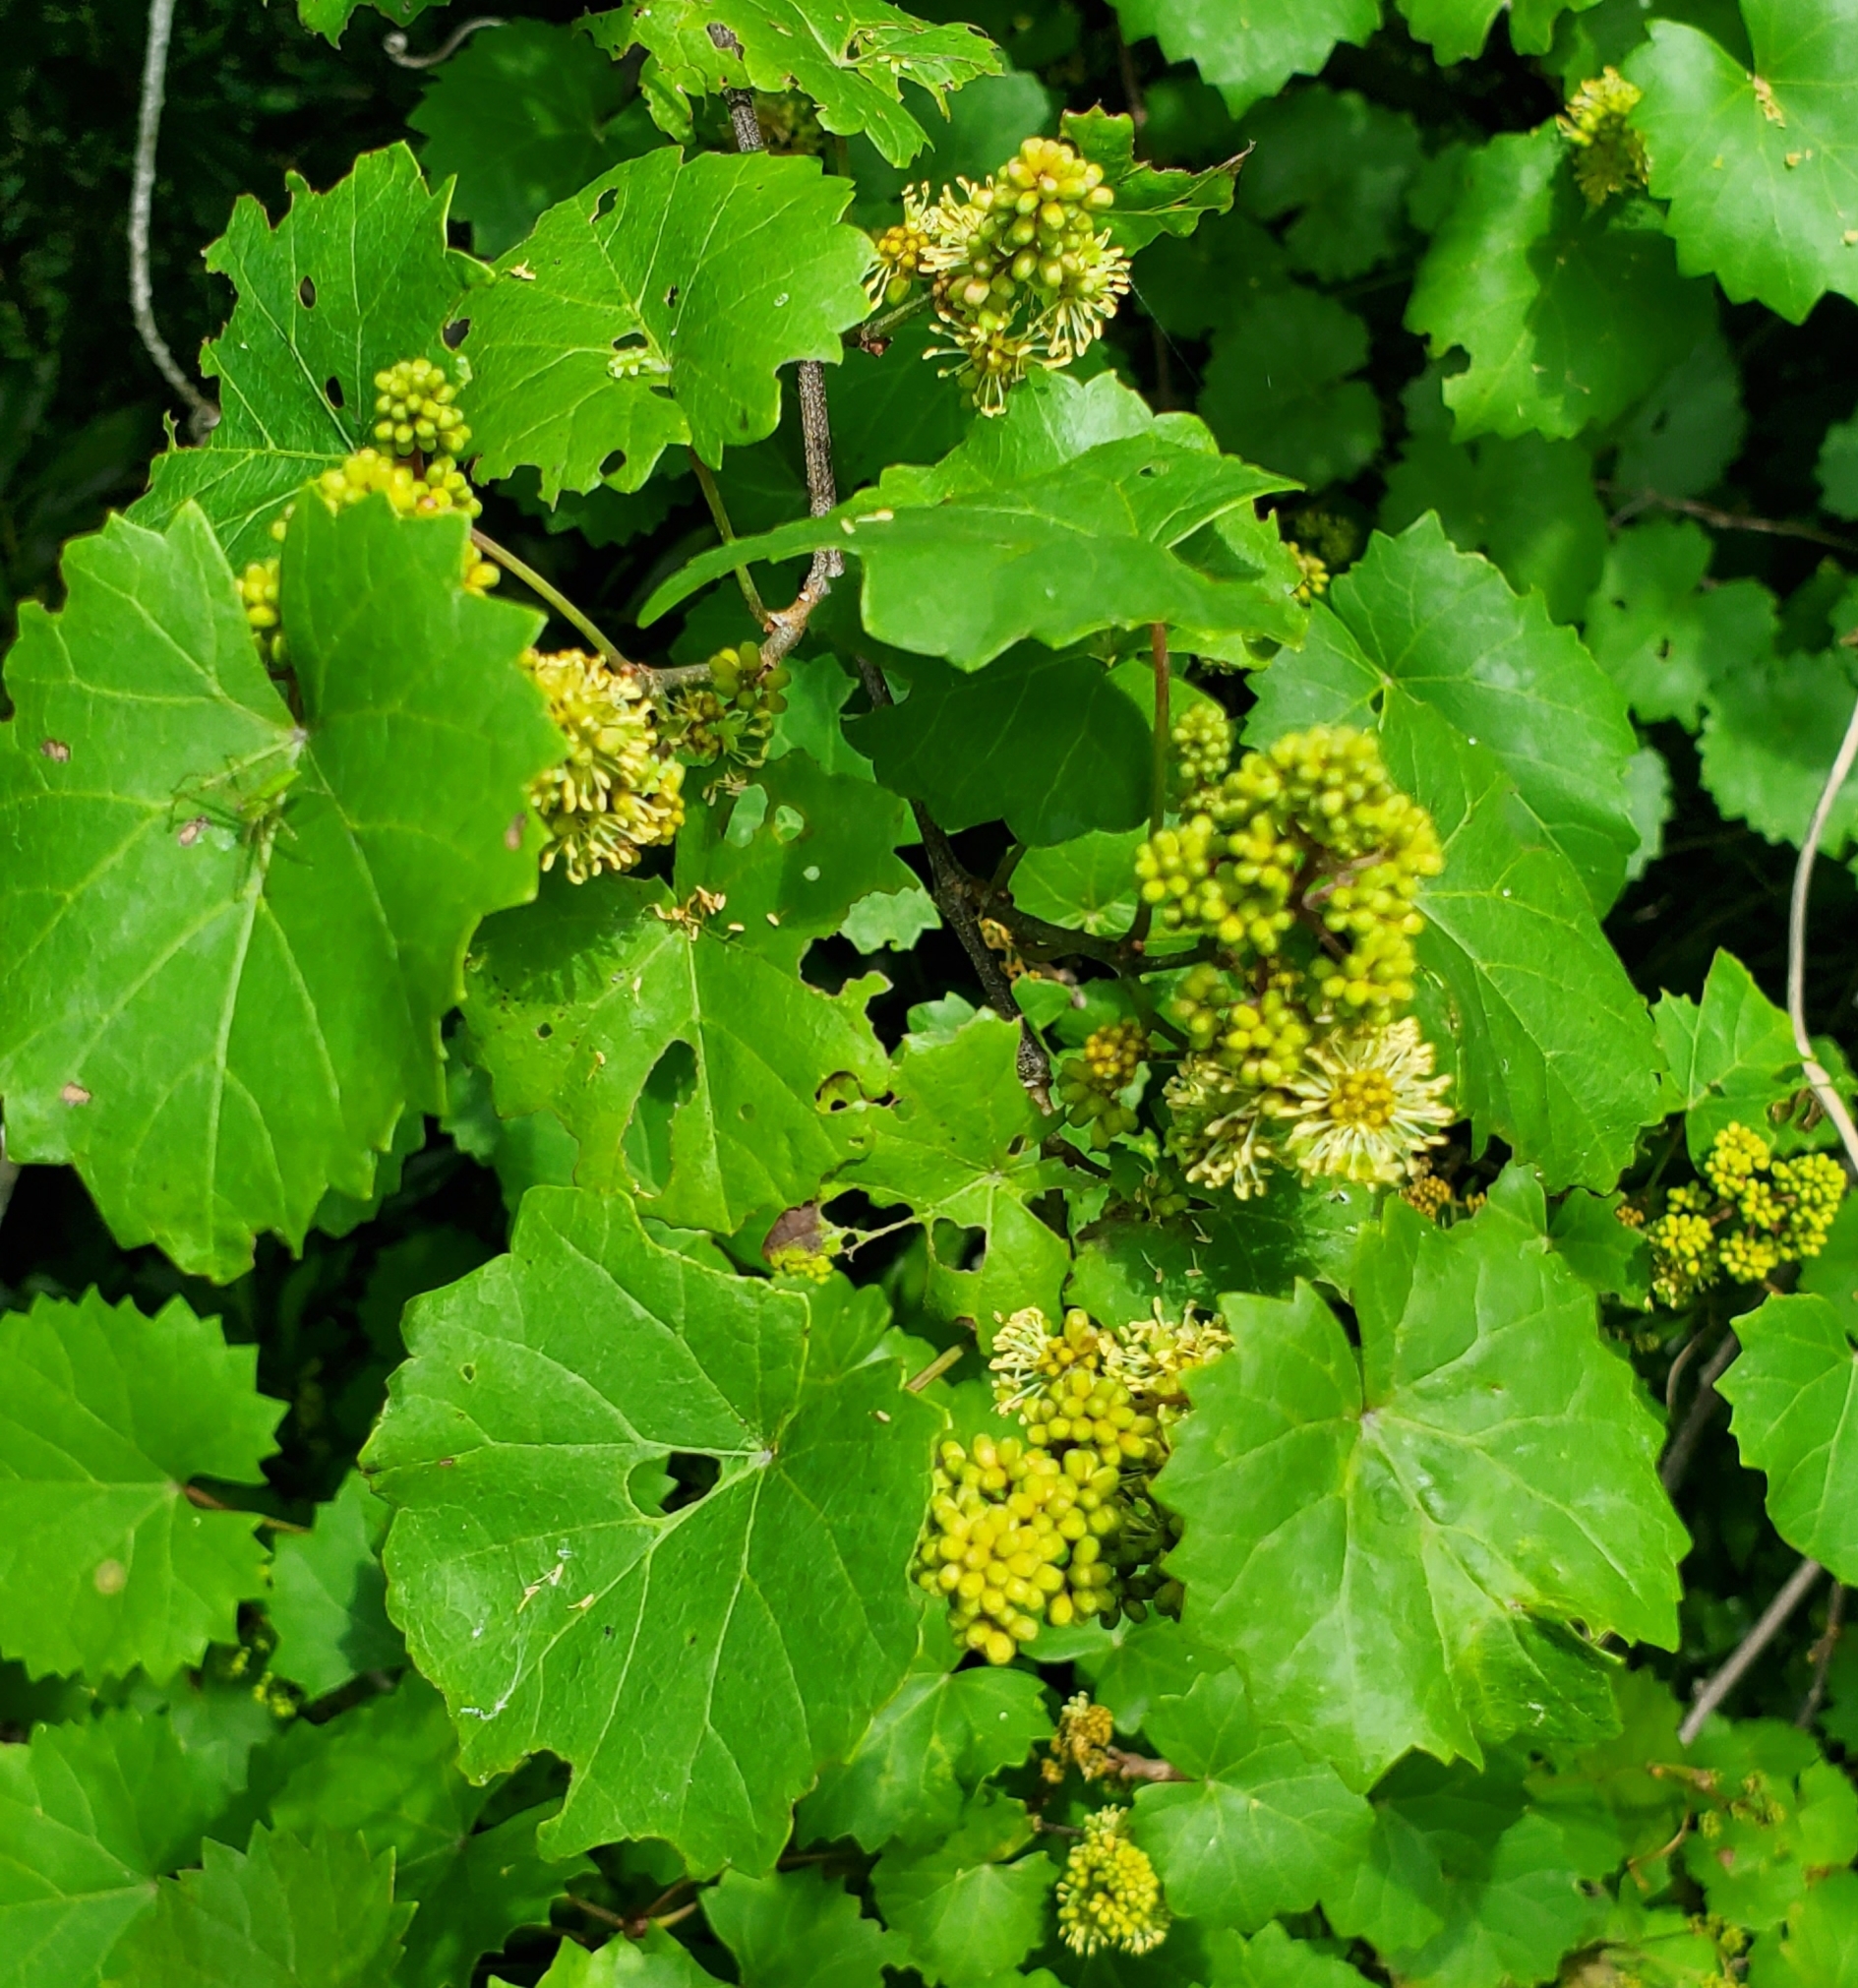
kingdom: Plantae
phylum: Tracheophyta
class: Magnoliopsida
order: Vitales
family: Vitaceae
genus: Vitis
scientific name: Vitis rotundifolia
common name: Muscadine grape
